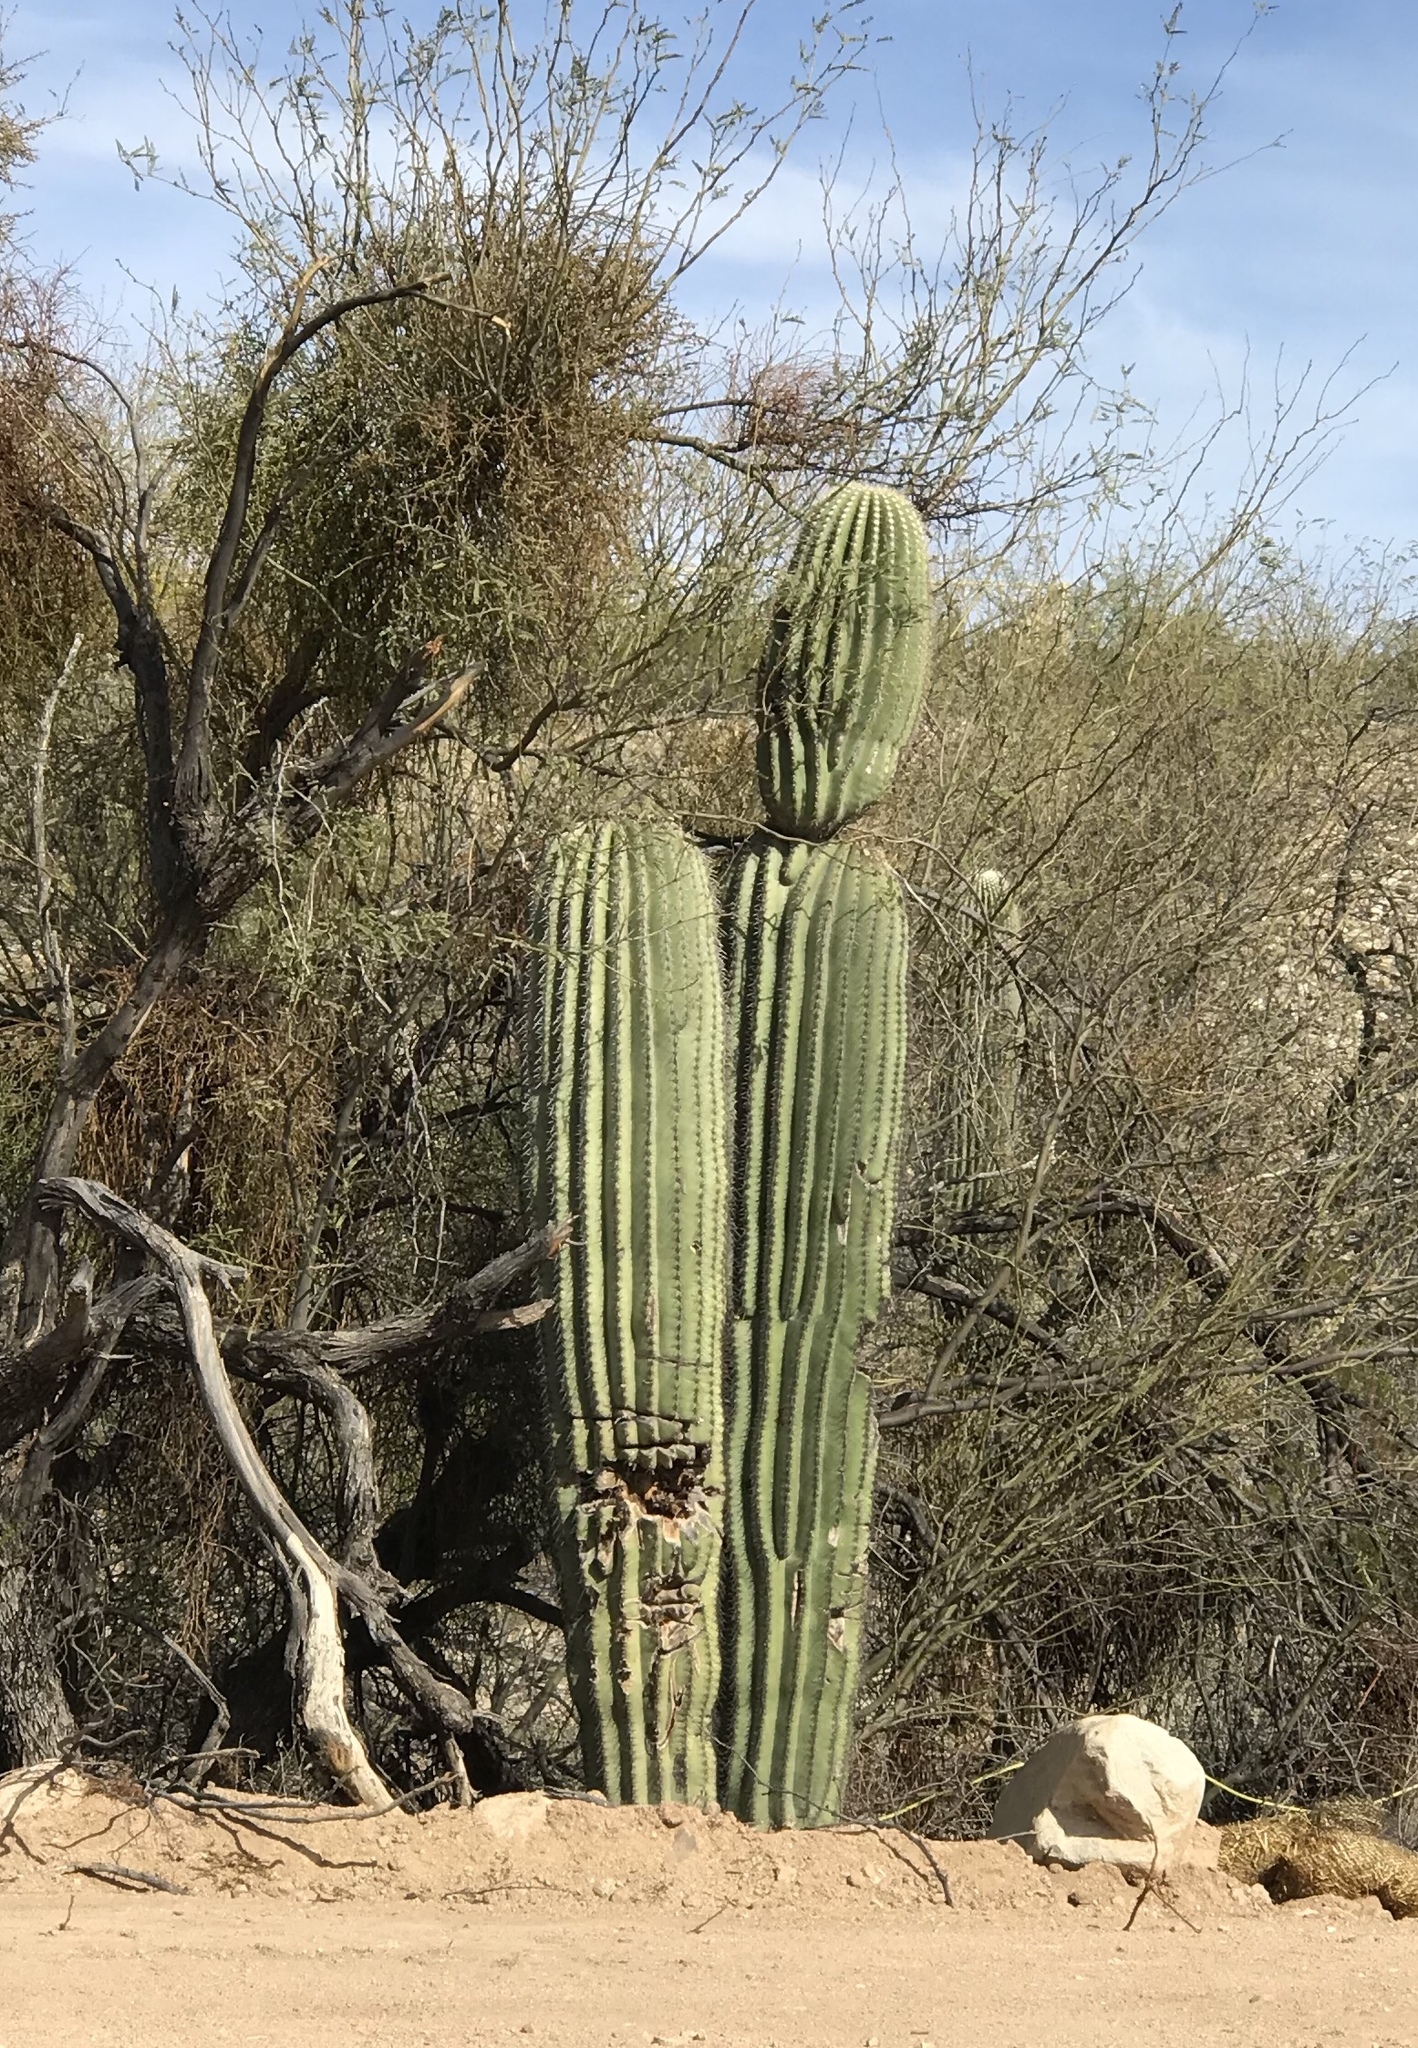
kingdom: Plantae
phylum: Tracheophyta
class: Magnoliopsida
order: Caryophyllales
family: Cactaceae
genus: Carnegiea
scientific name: Carnegiea gigantea
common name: Saguaro
